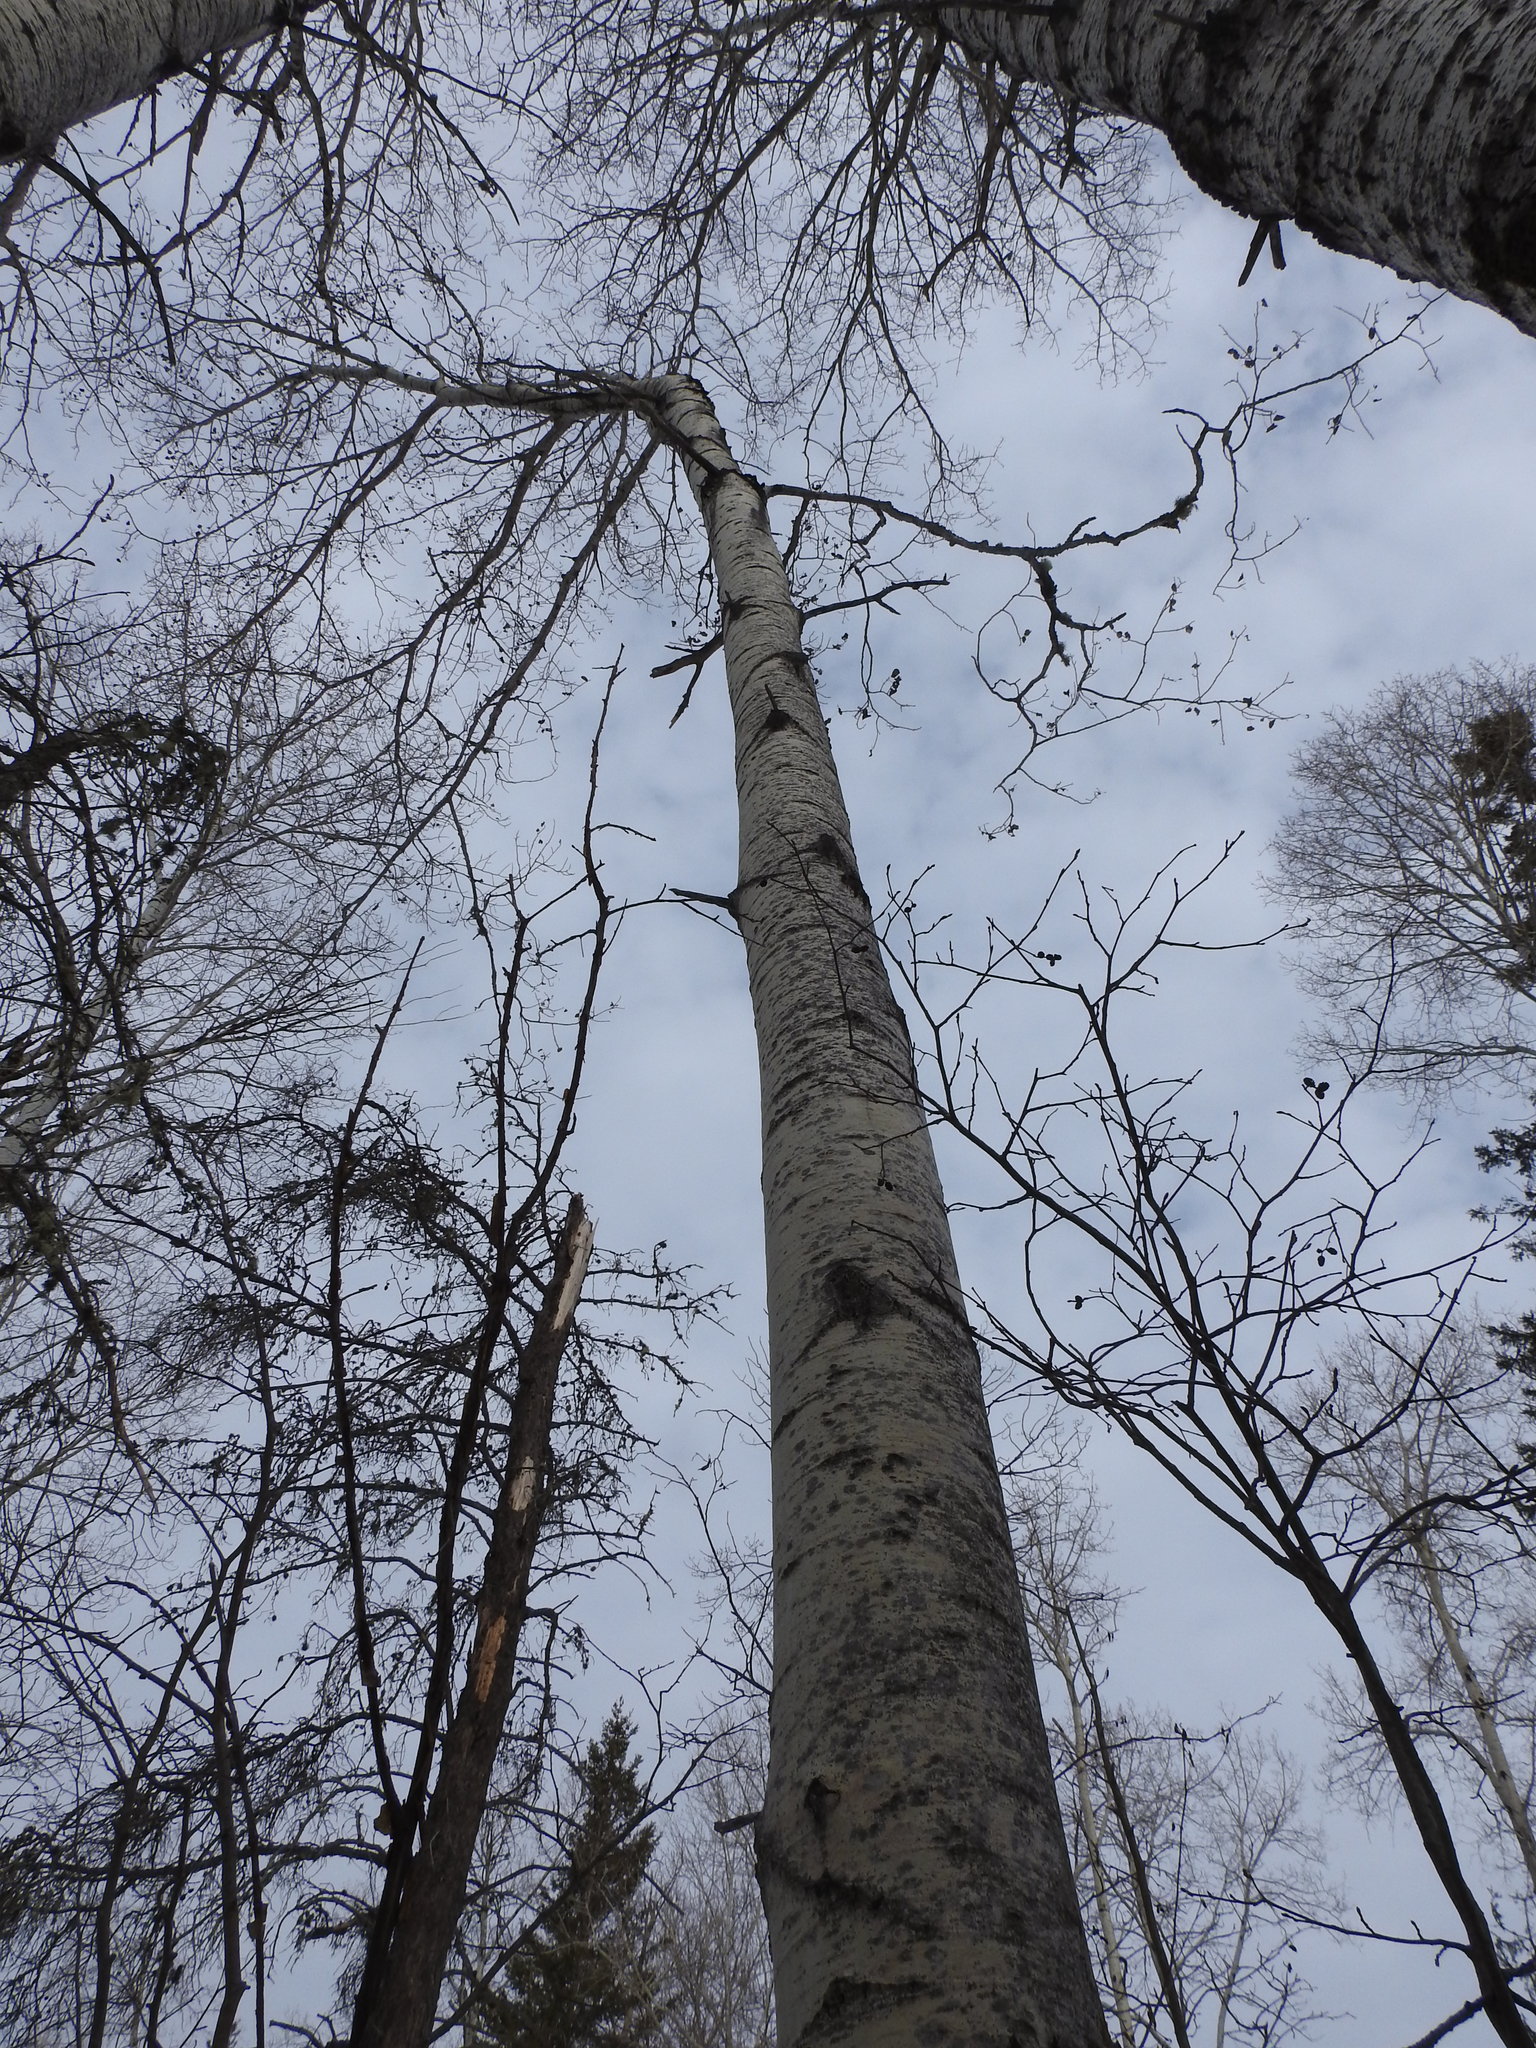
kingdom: Plantae
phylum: Tracheophyta
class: Magnoliopsida
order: Malpighiales
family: Salicaceae
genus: Populus
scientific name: Populus tremuloides
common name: Quaking aspen
